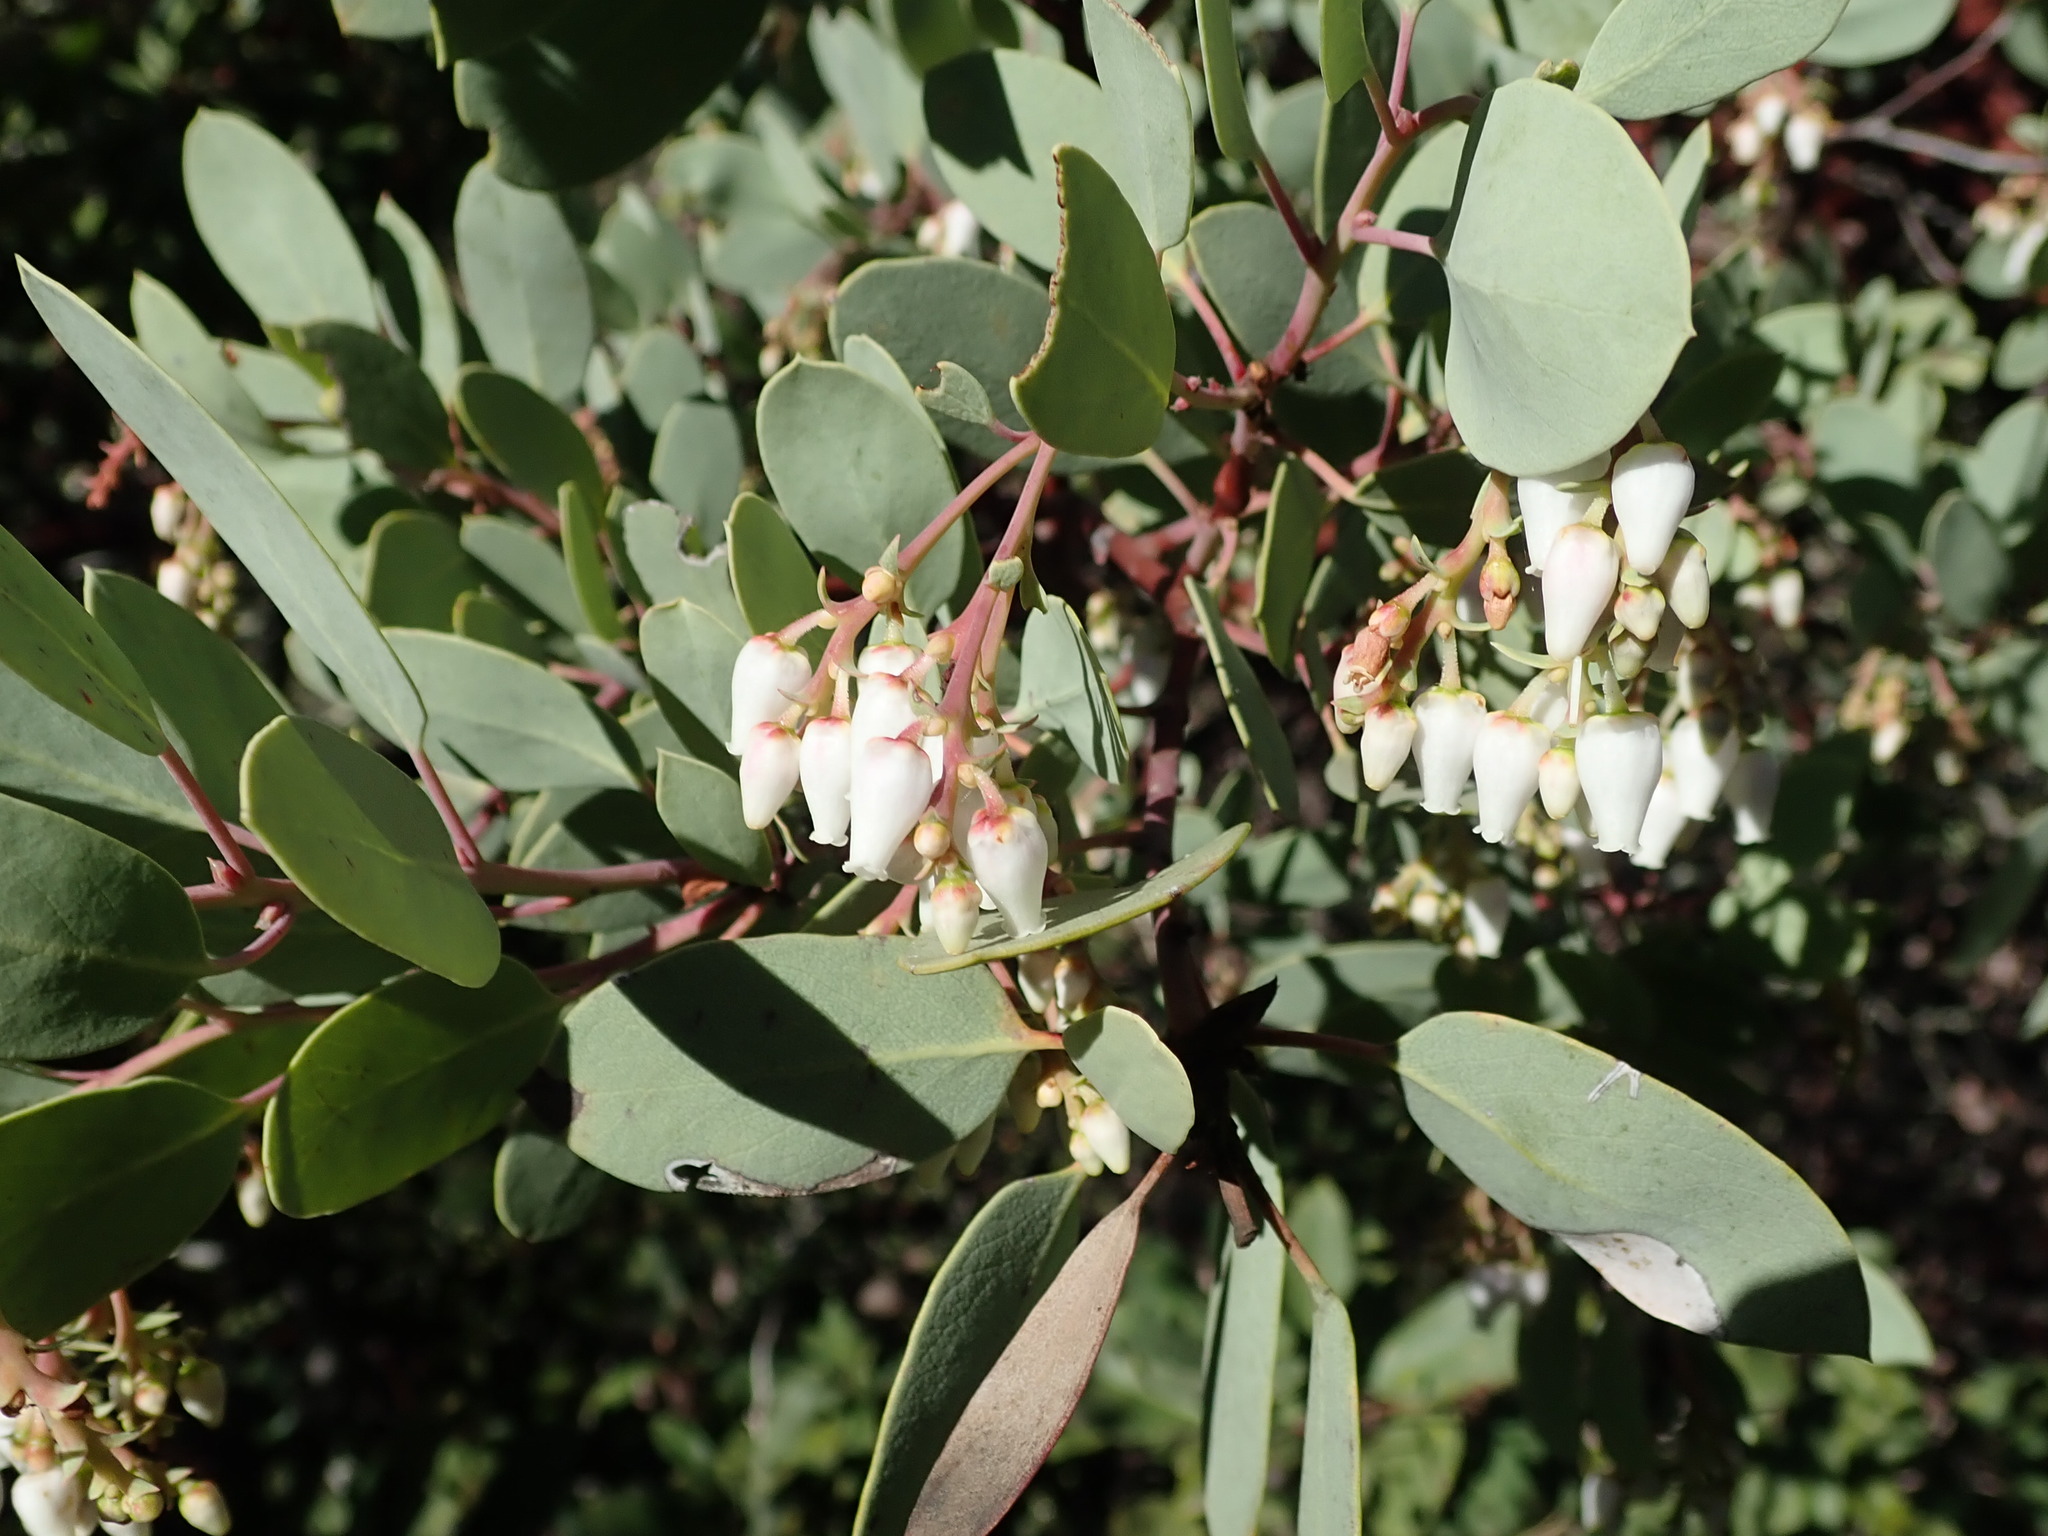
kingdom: Plantae
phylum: Tracheophyta
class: Magnoliopsida
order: Ericales
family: Ericaceae
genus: Arctostaphylos
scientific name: Arctostaphylos glauca
